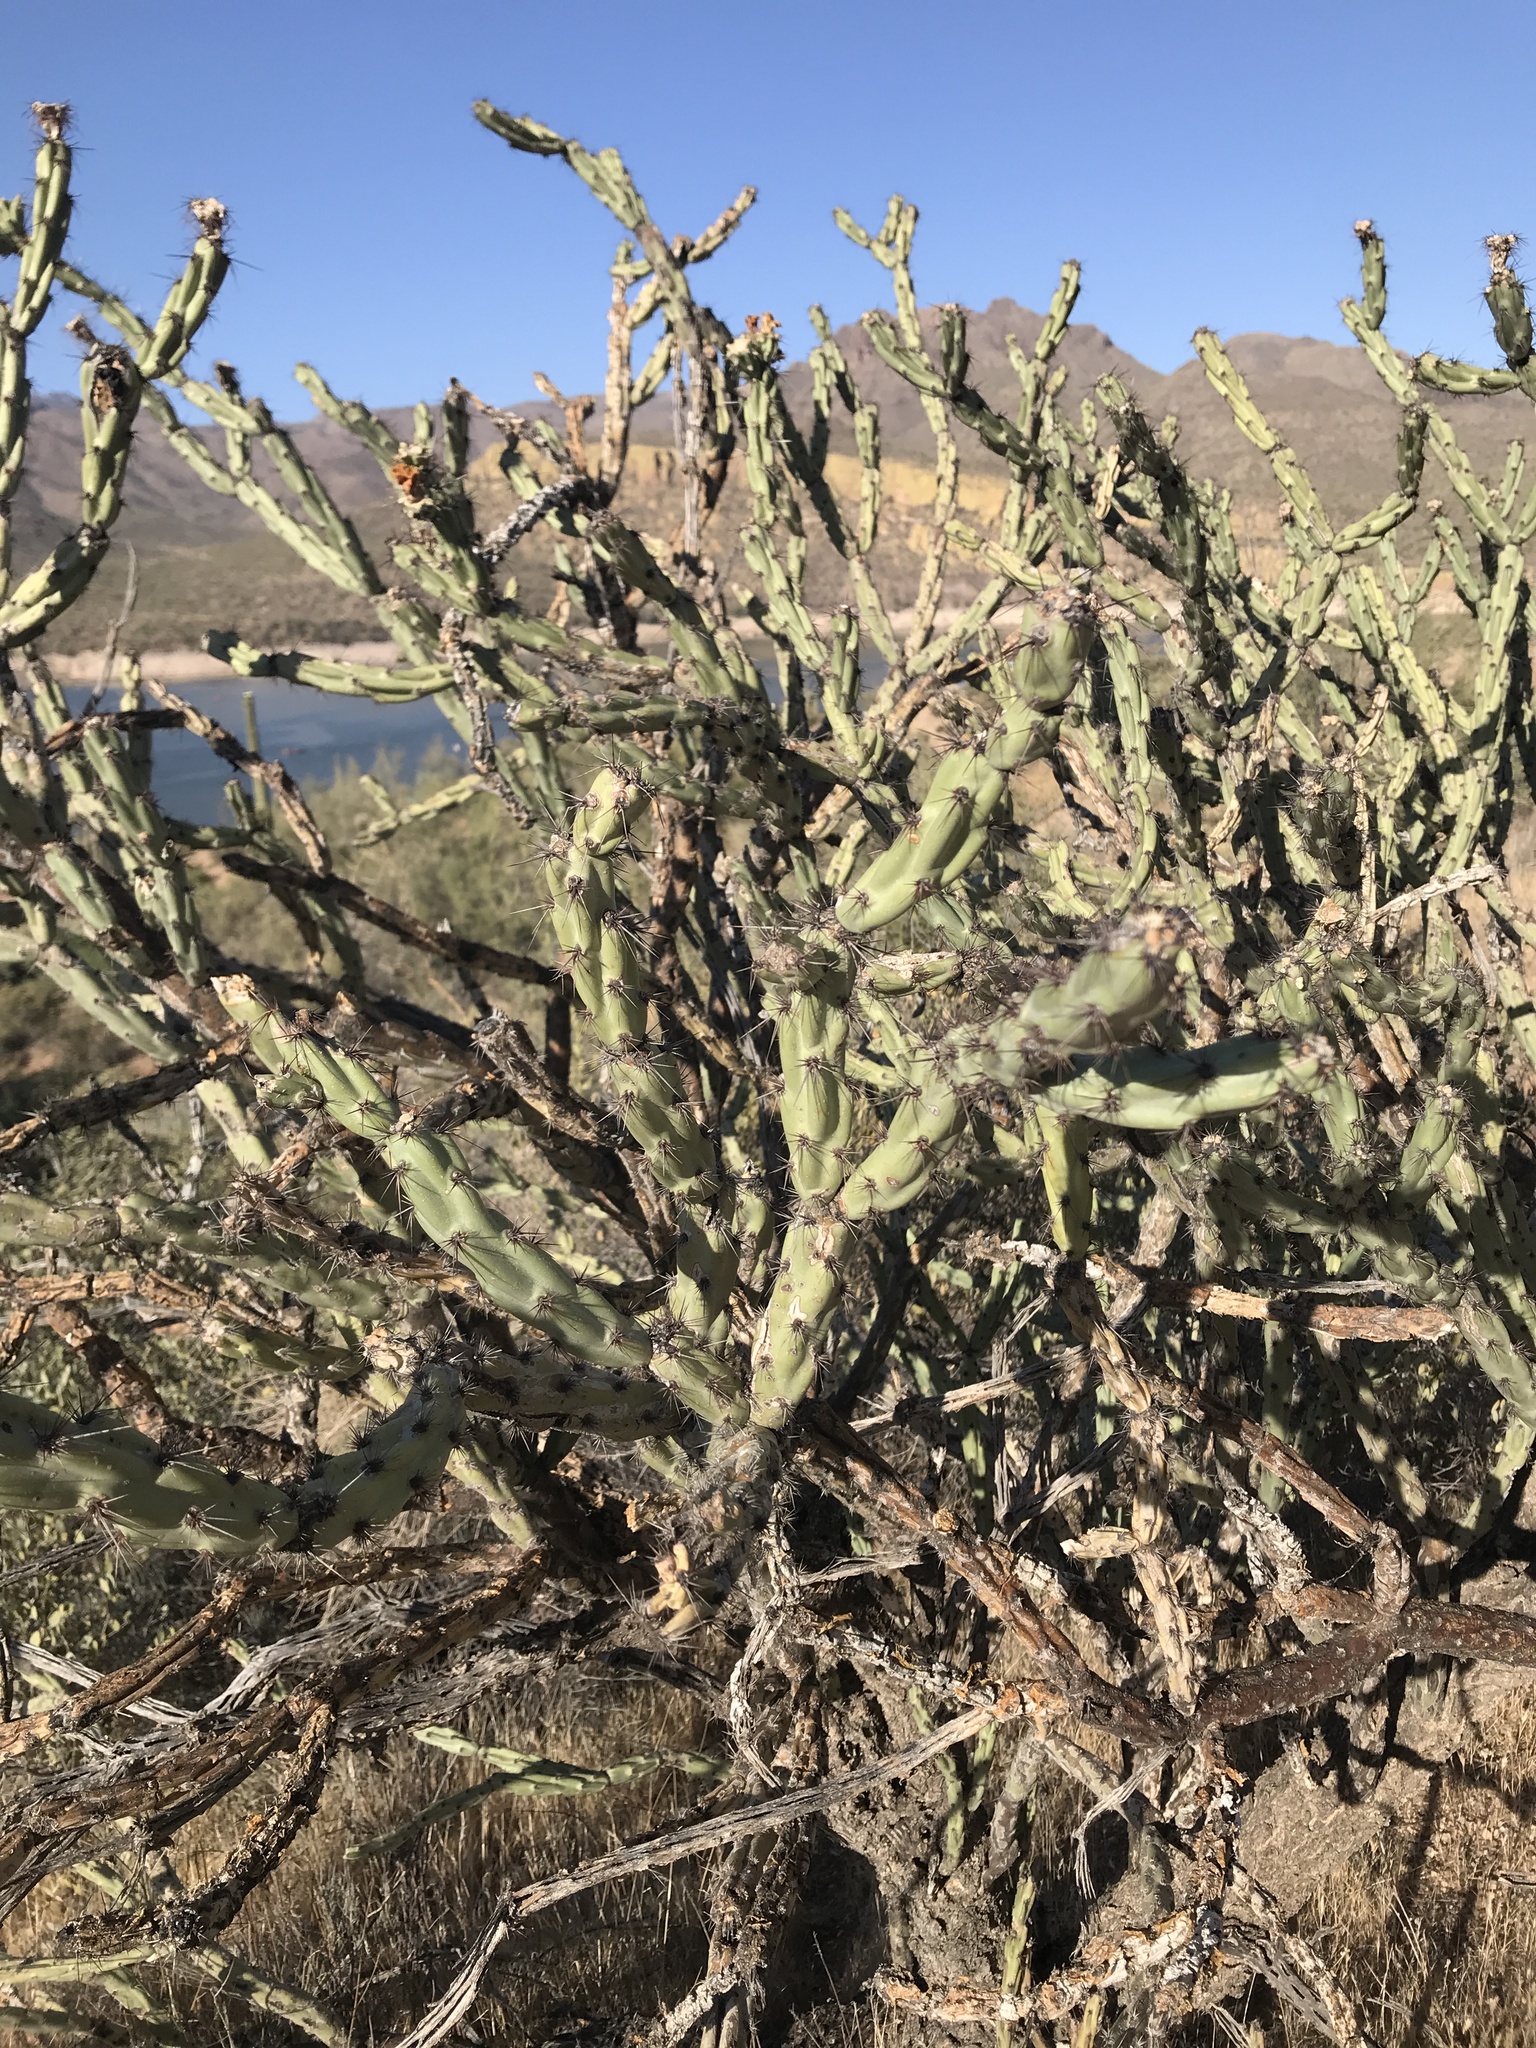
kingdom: Plantae
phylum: Tracheophyta
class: Magnoliopsida
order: Caryophyllales
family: Cactaceae
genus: Cylindropuntia
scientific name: Cylindropuntia acanthocarpa
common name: Buckhorn cholla
